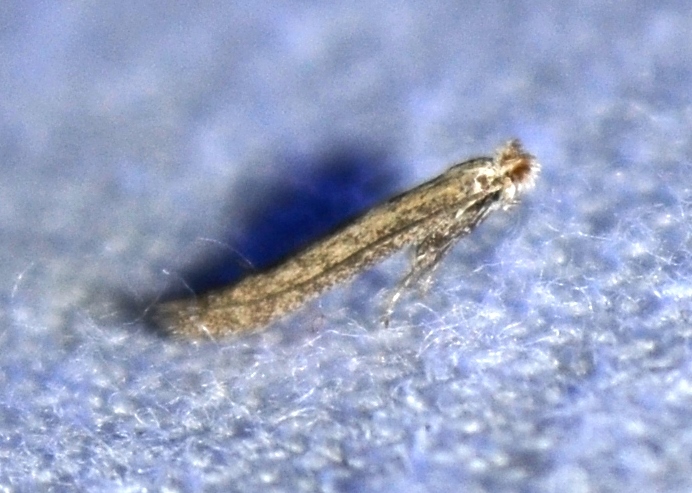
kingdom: Animalia
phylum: Arthropoda
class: Insecta
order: Lepidoptera
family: Bedelliidae
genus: Bedellia
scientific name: Bedellia somnulentella
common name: Morning-glory leafminer moth
